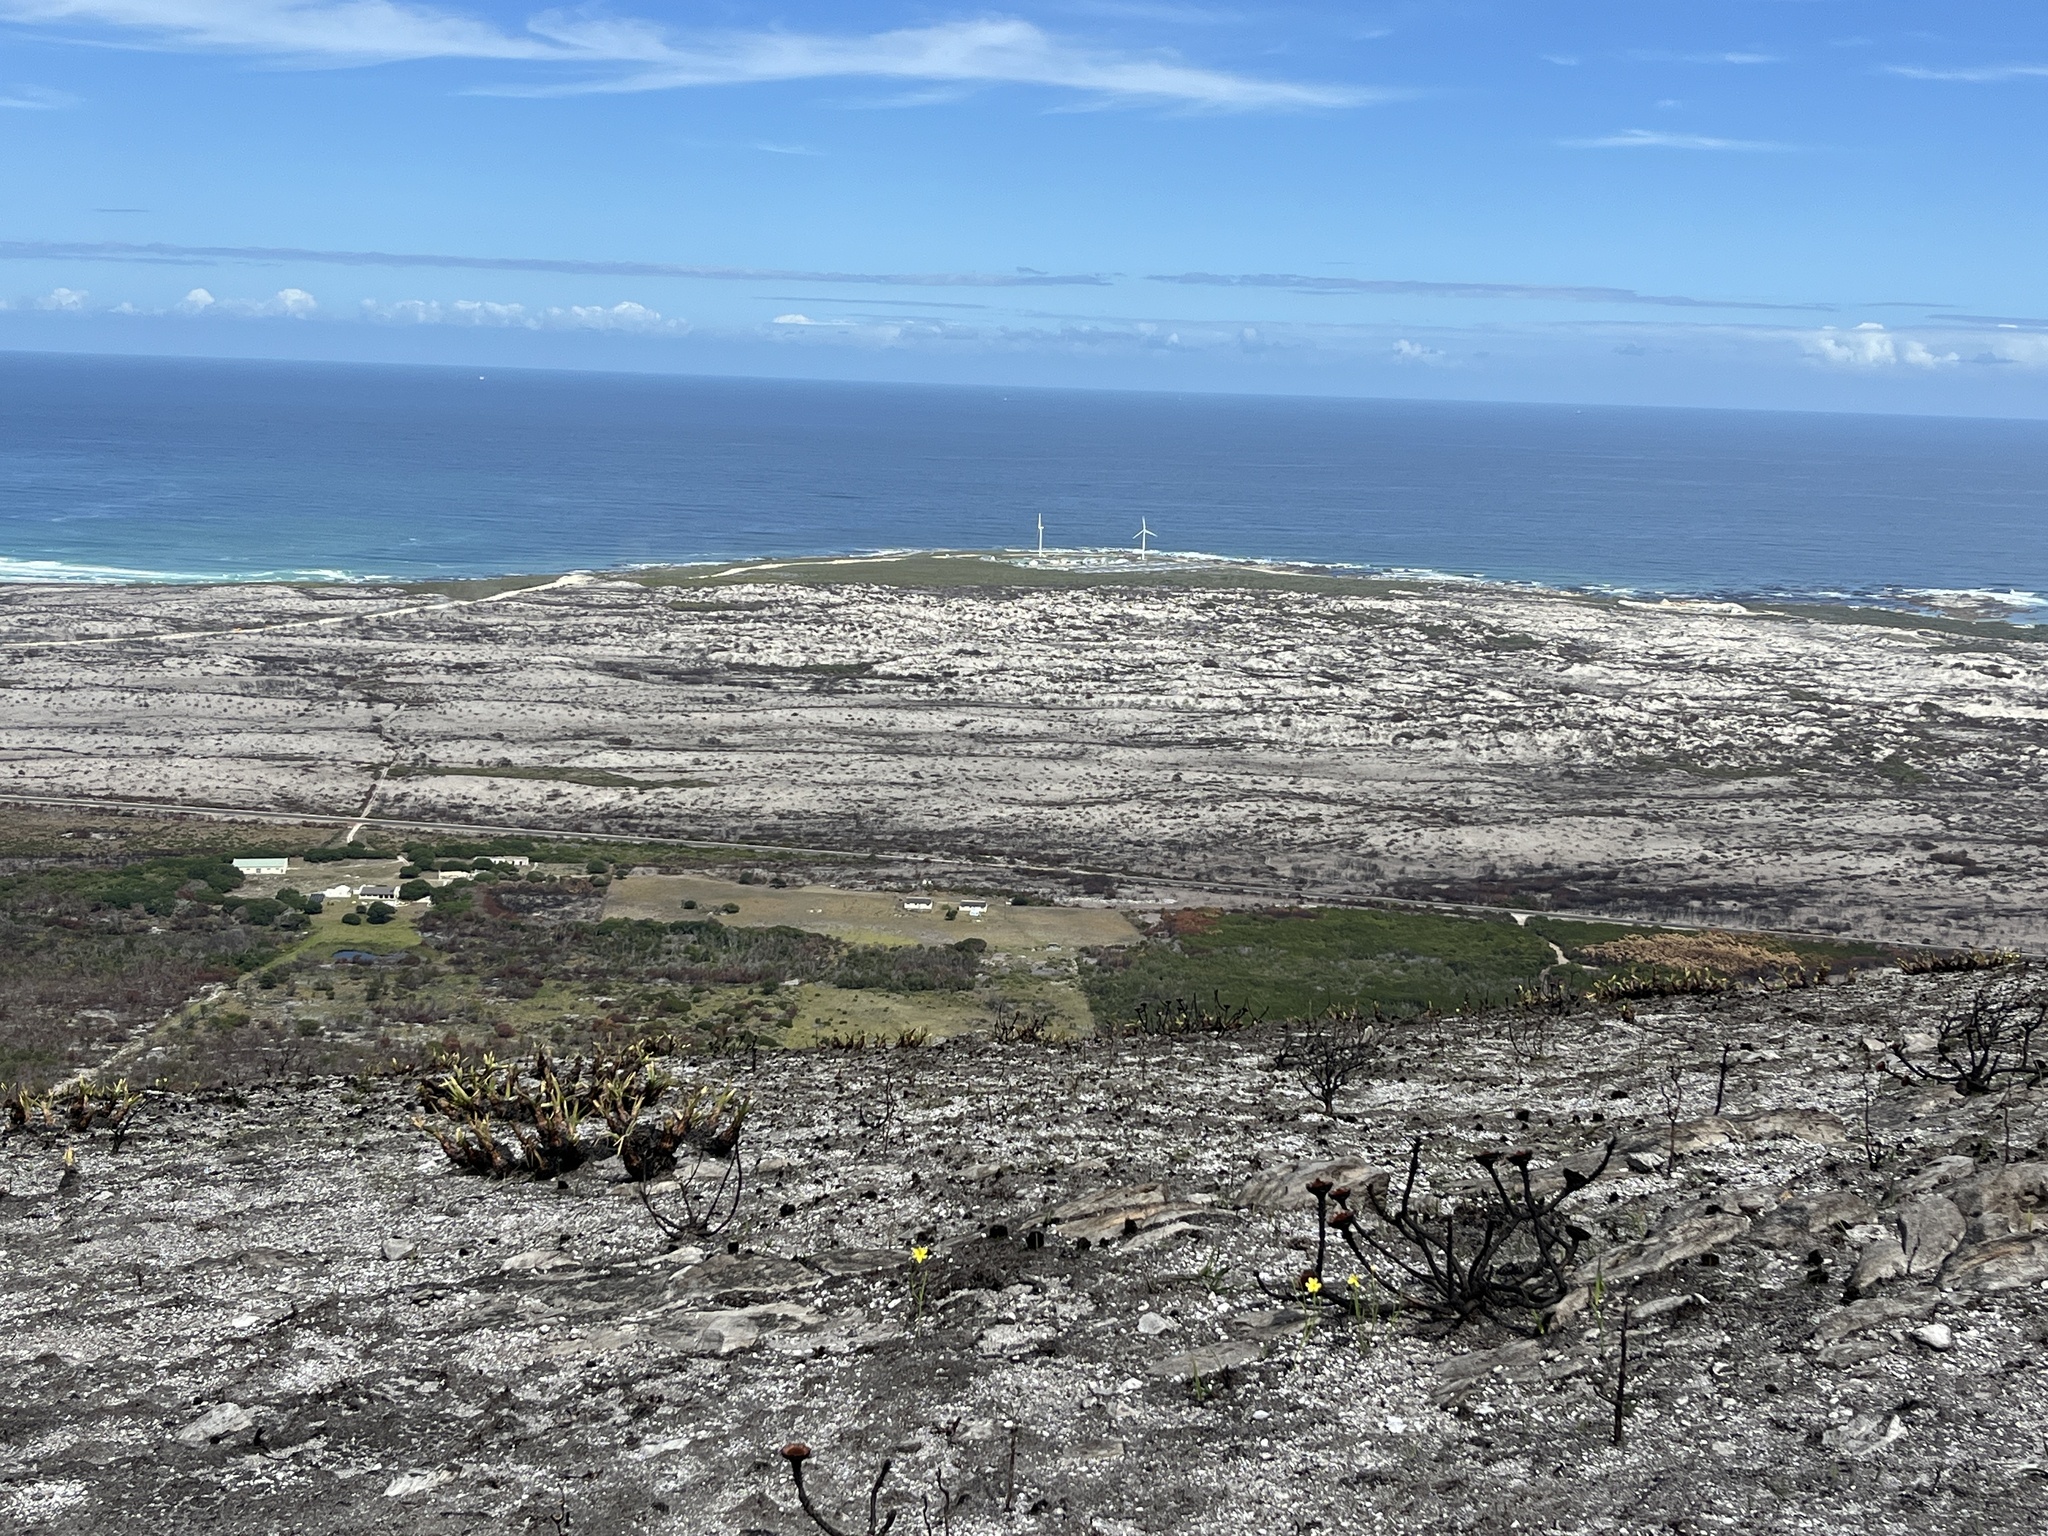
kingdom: Plantae
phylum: Tracheophyta
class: Liliopsida
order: Poales
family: Cyperaceae
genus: Tetraria
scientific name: Tetraria thermalis
